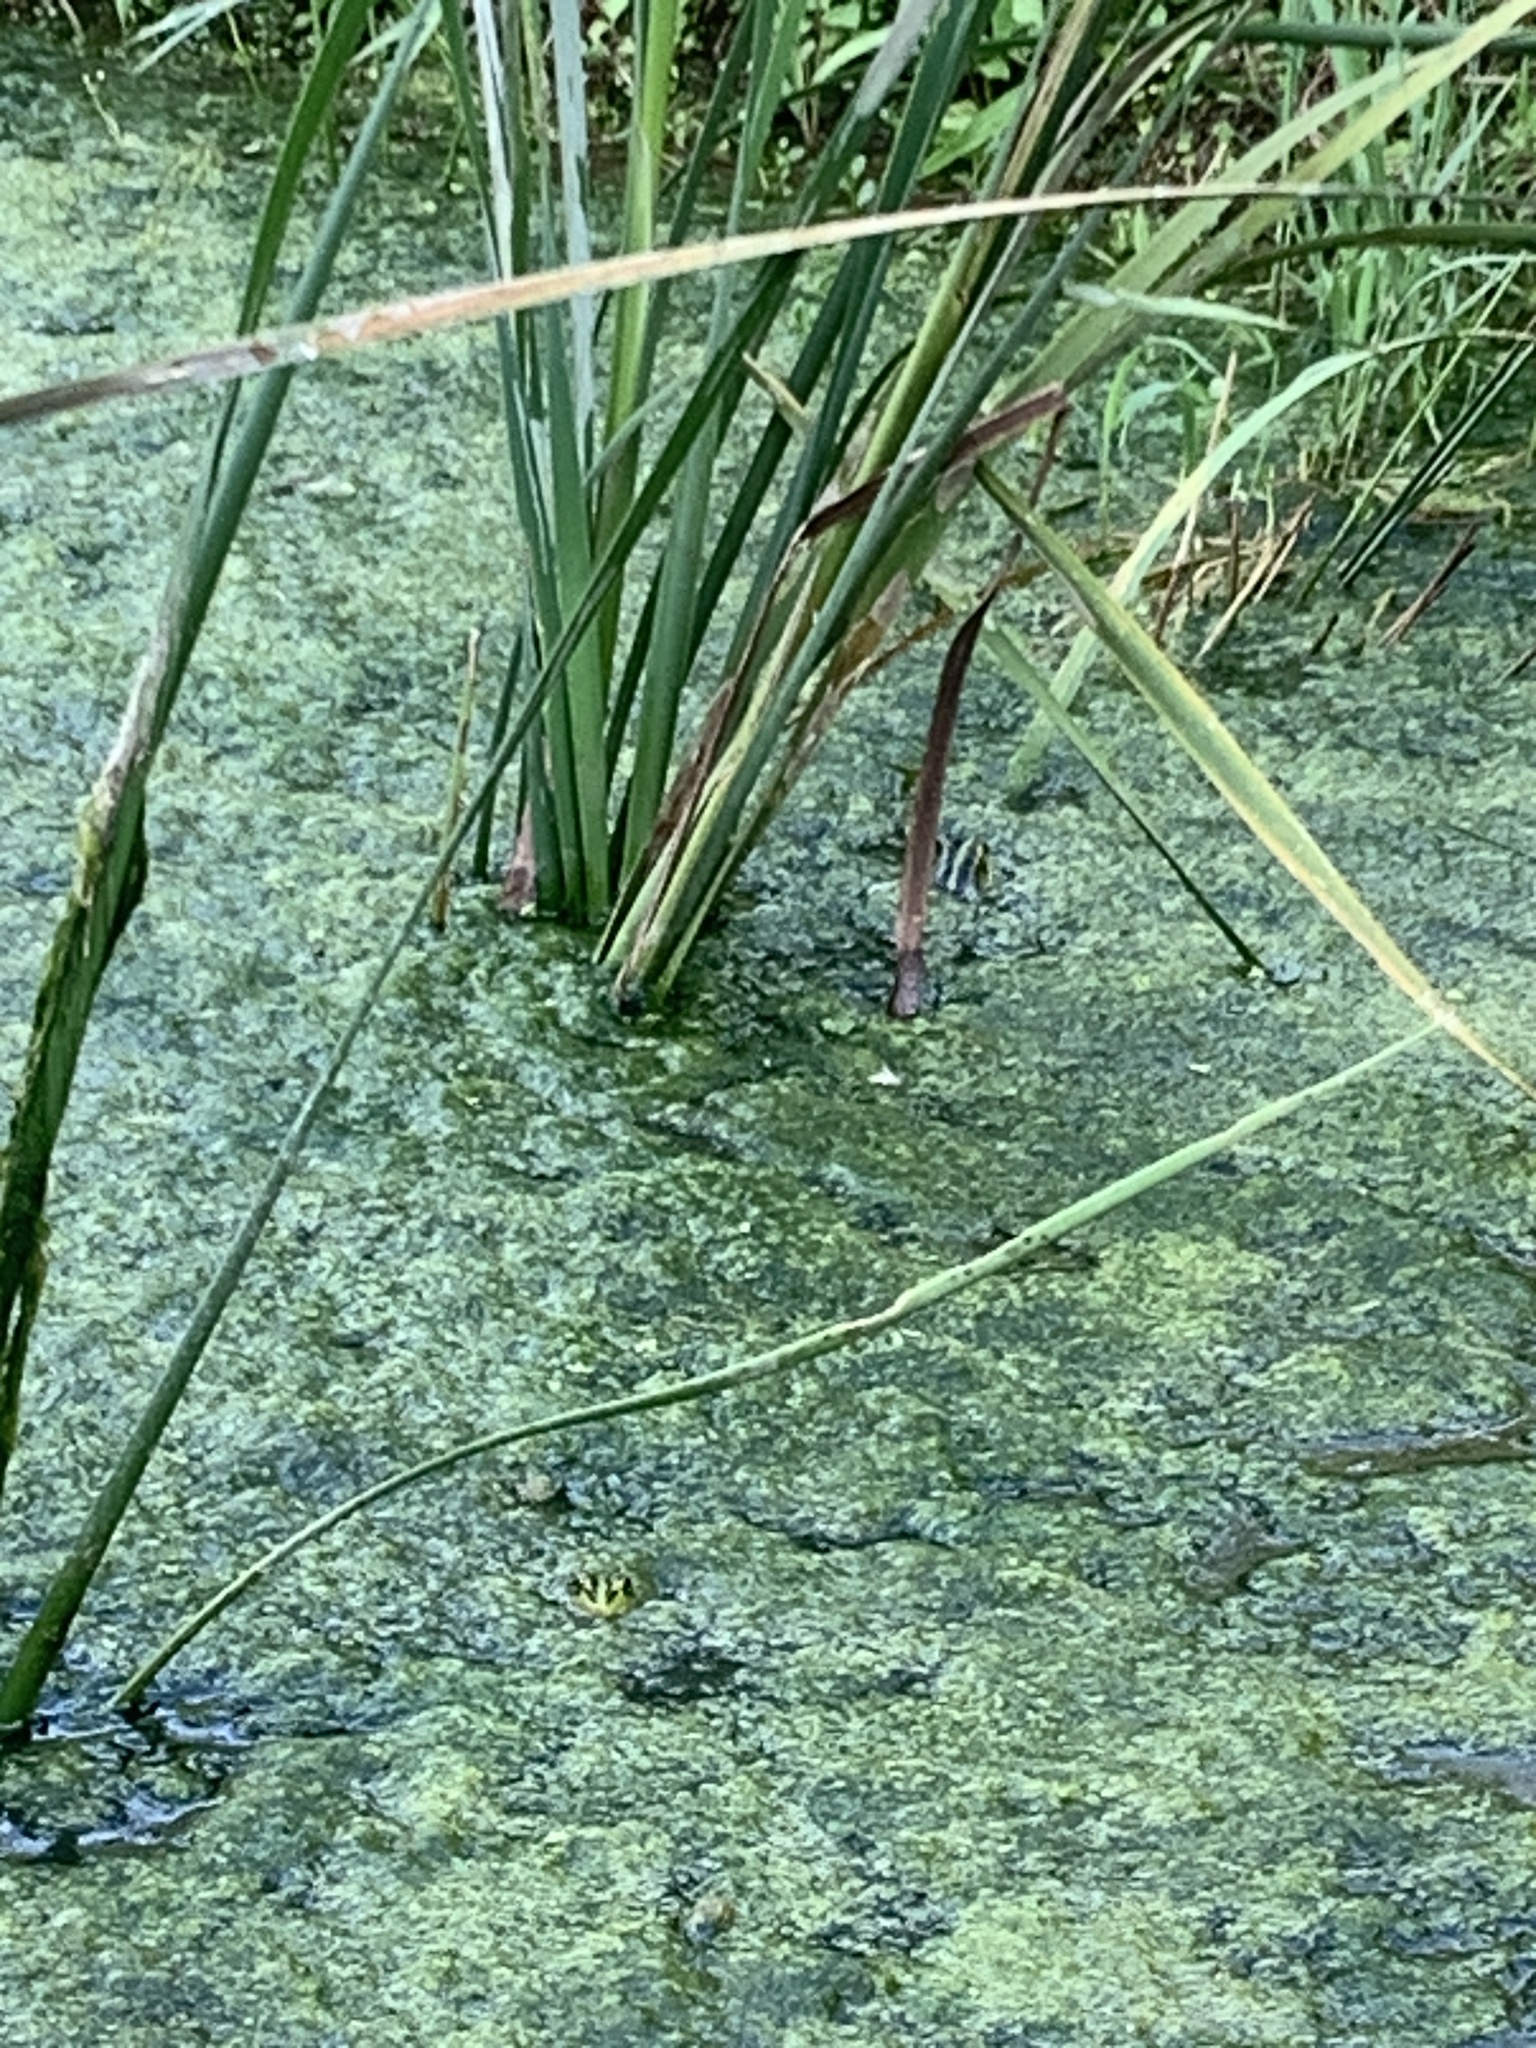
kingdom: Animalia
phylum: Chordata
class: Amphibia
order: Anura
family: Ranidae
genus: Pelophylax
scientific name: Pelophylax fukienensis
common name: Fukien gold-striped pond frog
